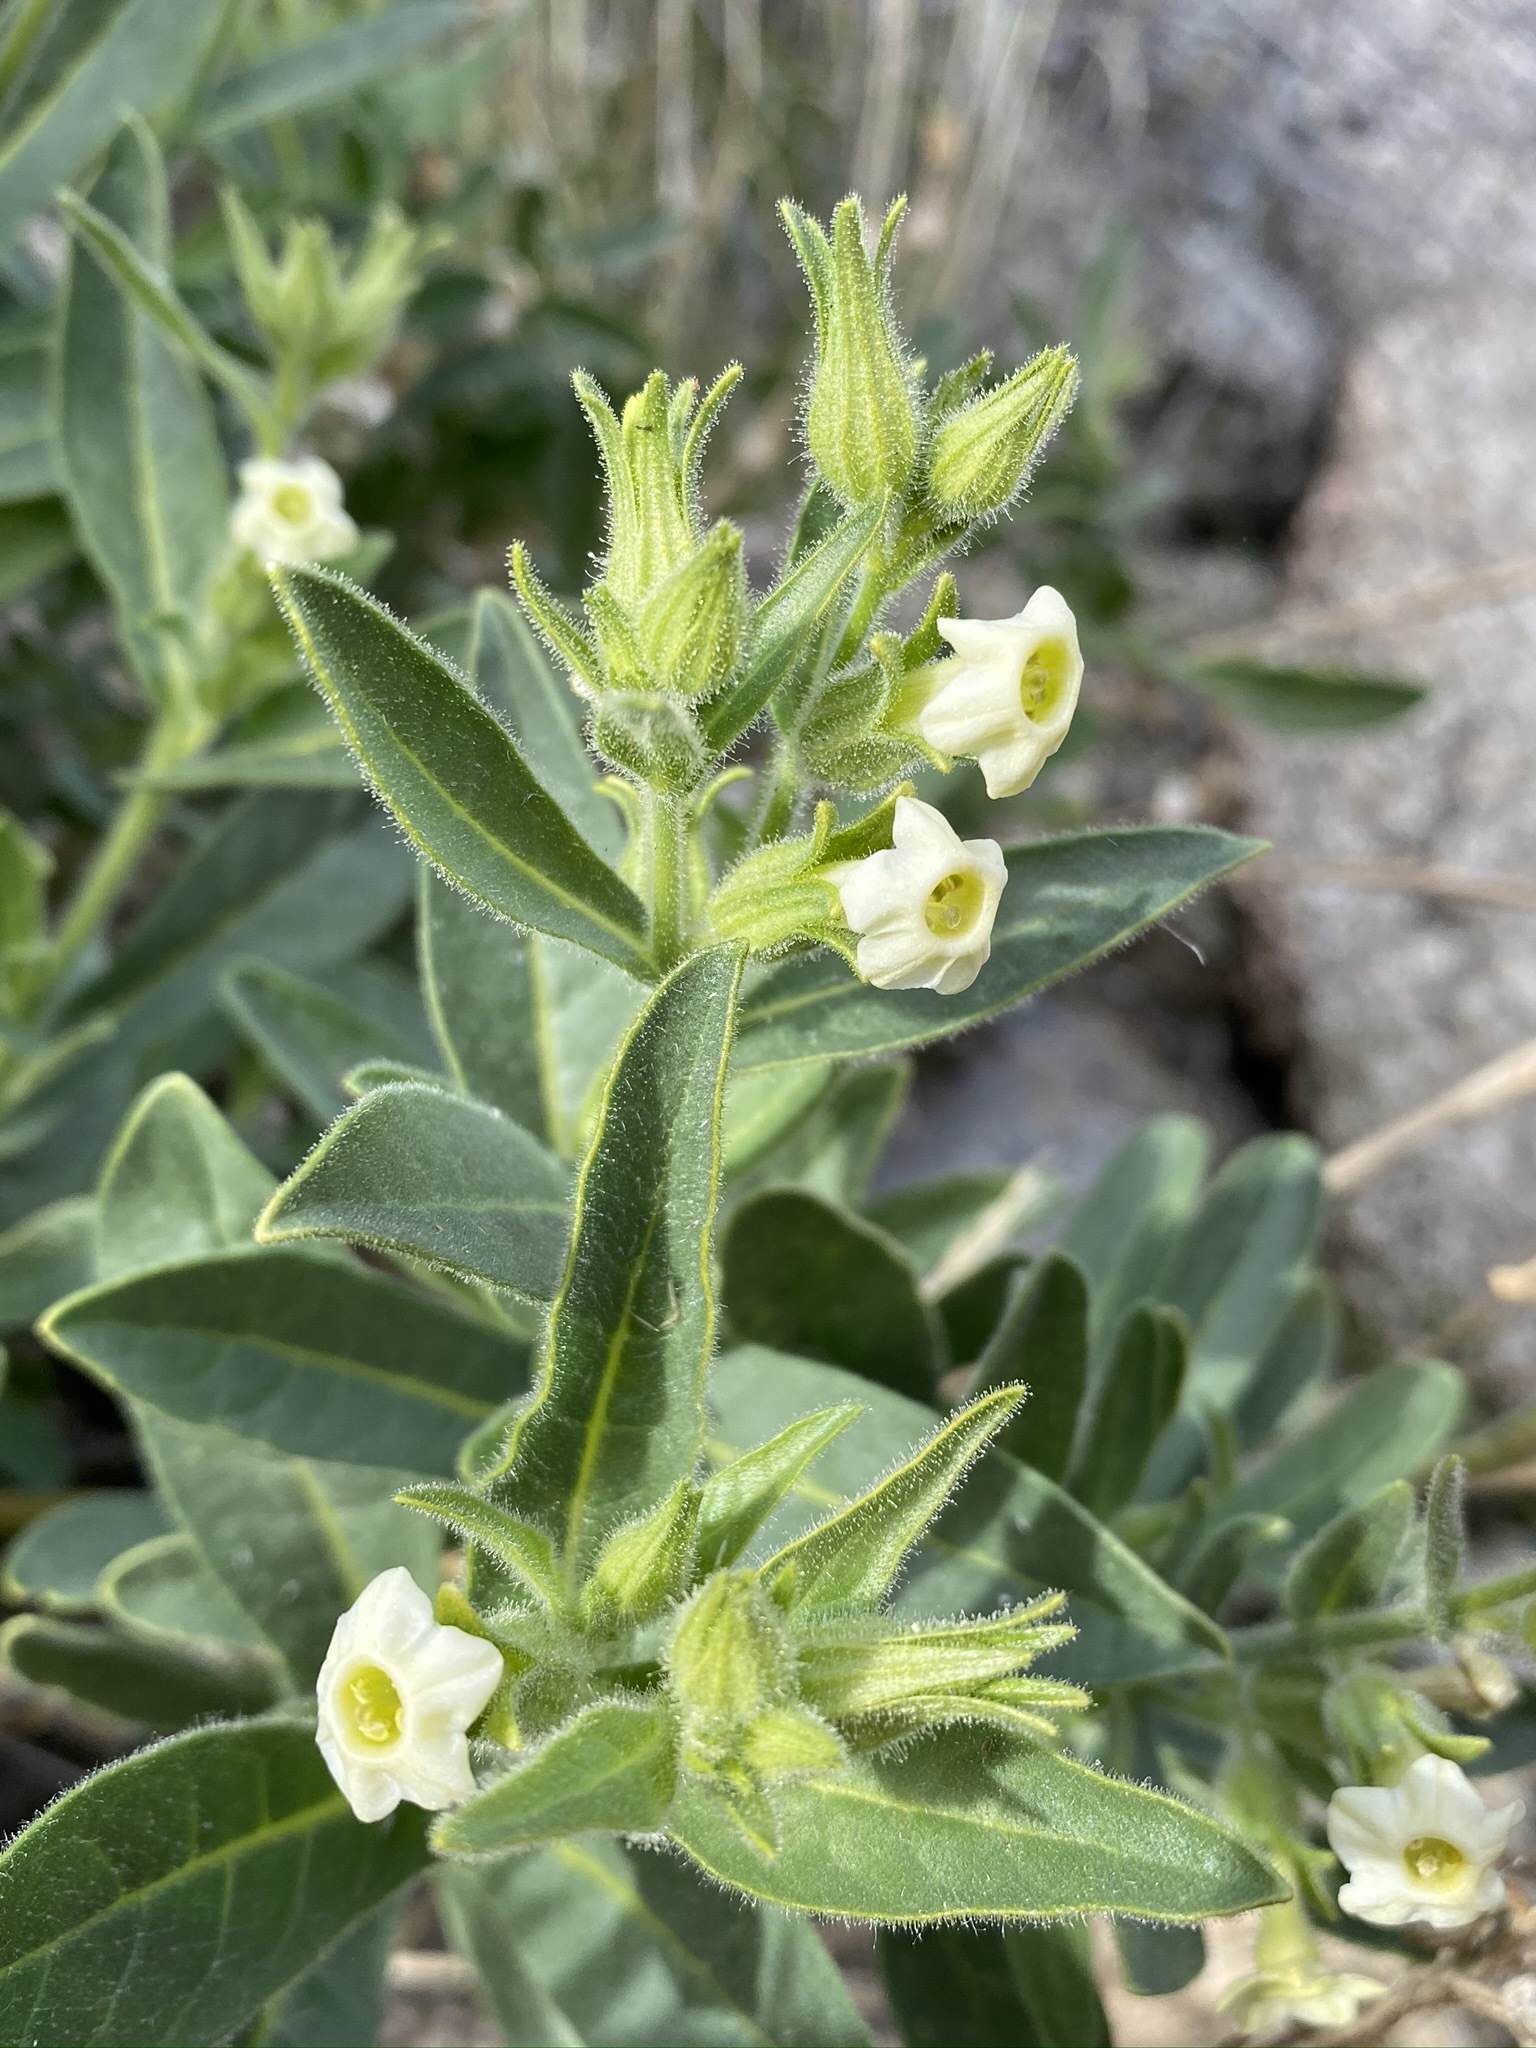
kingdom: Plantae
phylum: Tracheophyta
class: Magnoliopsida
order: Solanales
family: Solanaceae
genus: Nicotiana
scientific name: Nicotiana obtusifolia
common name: Desert tobacco
